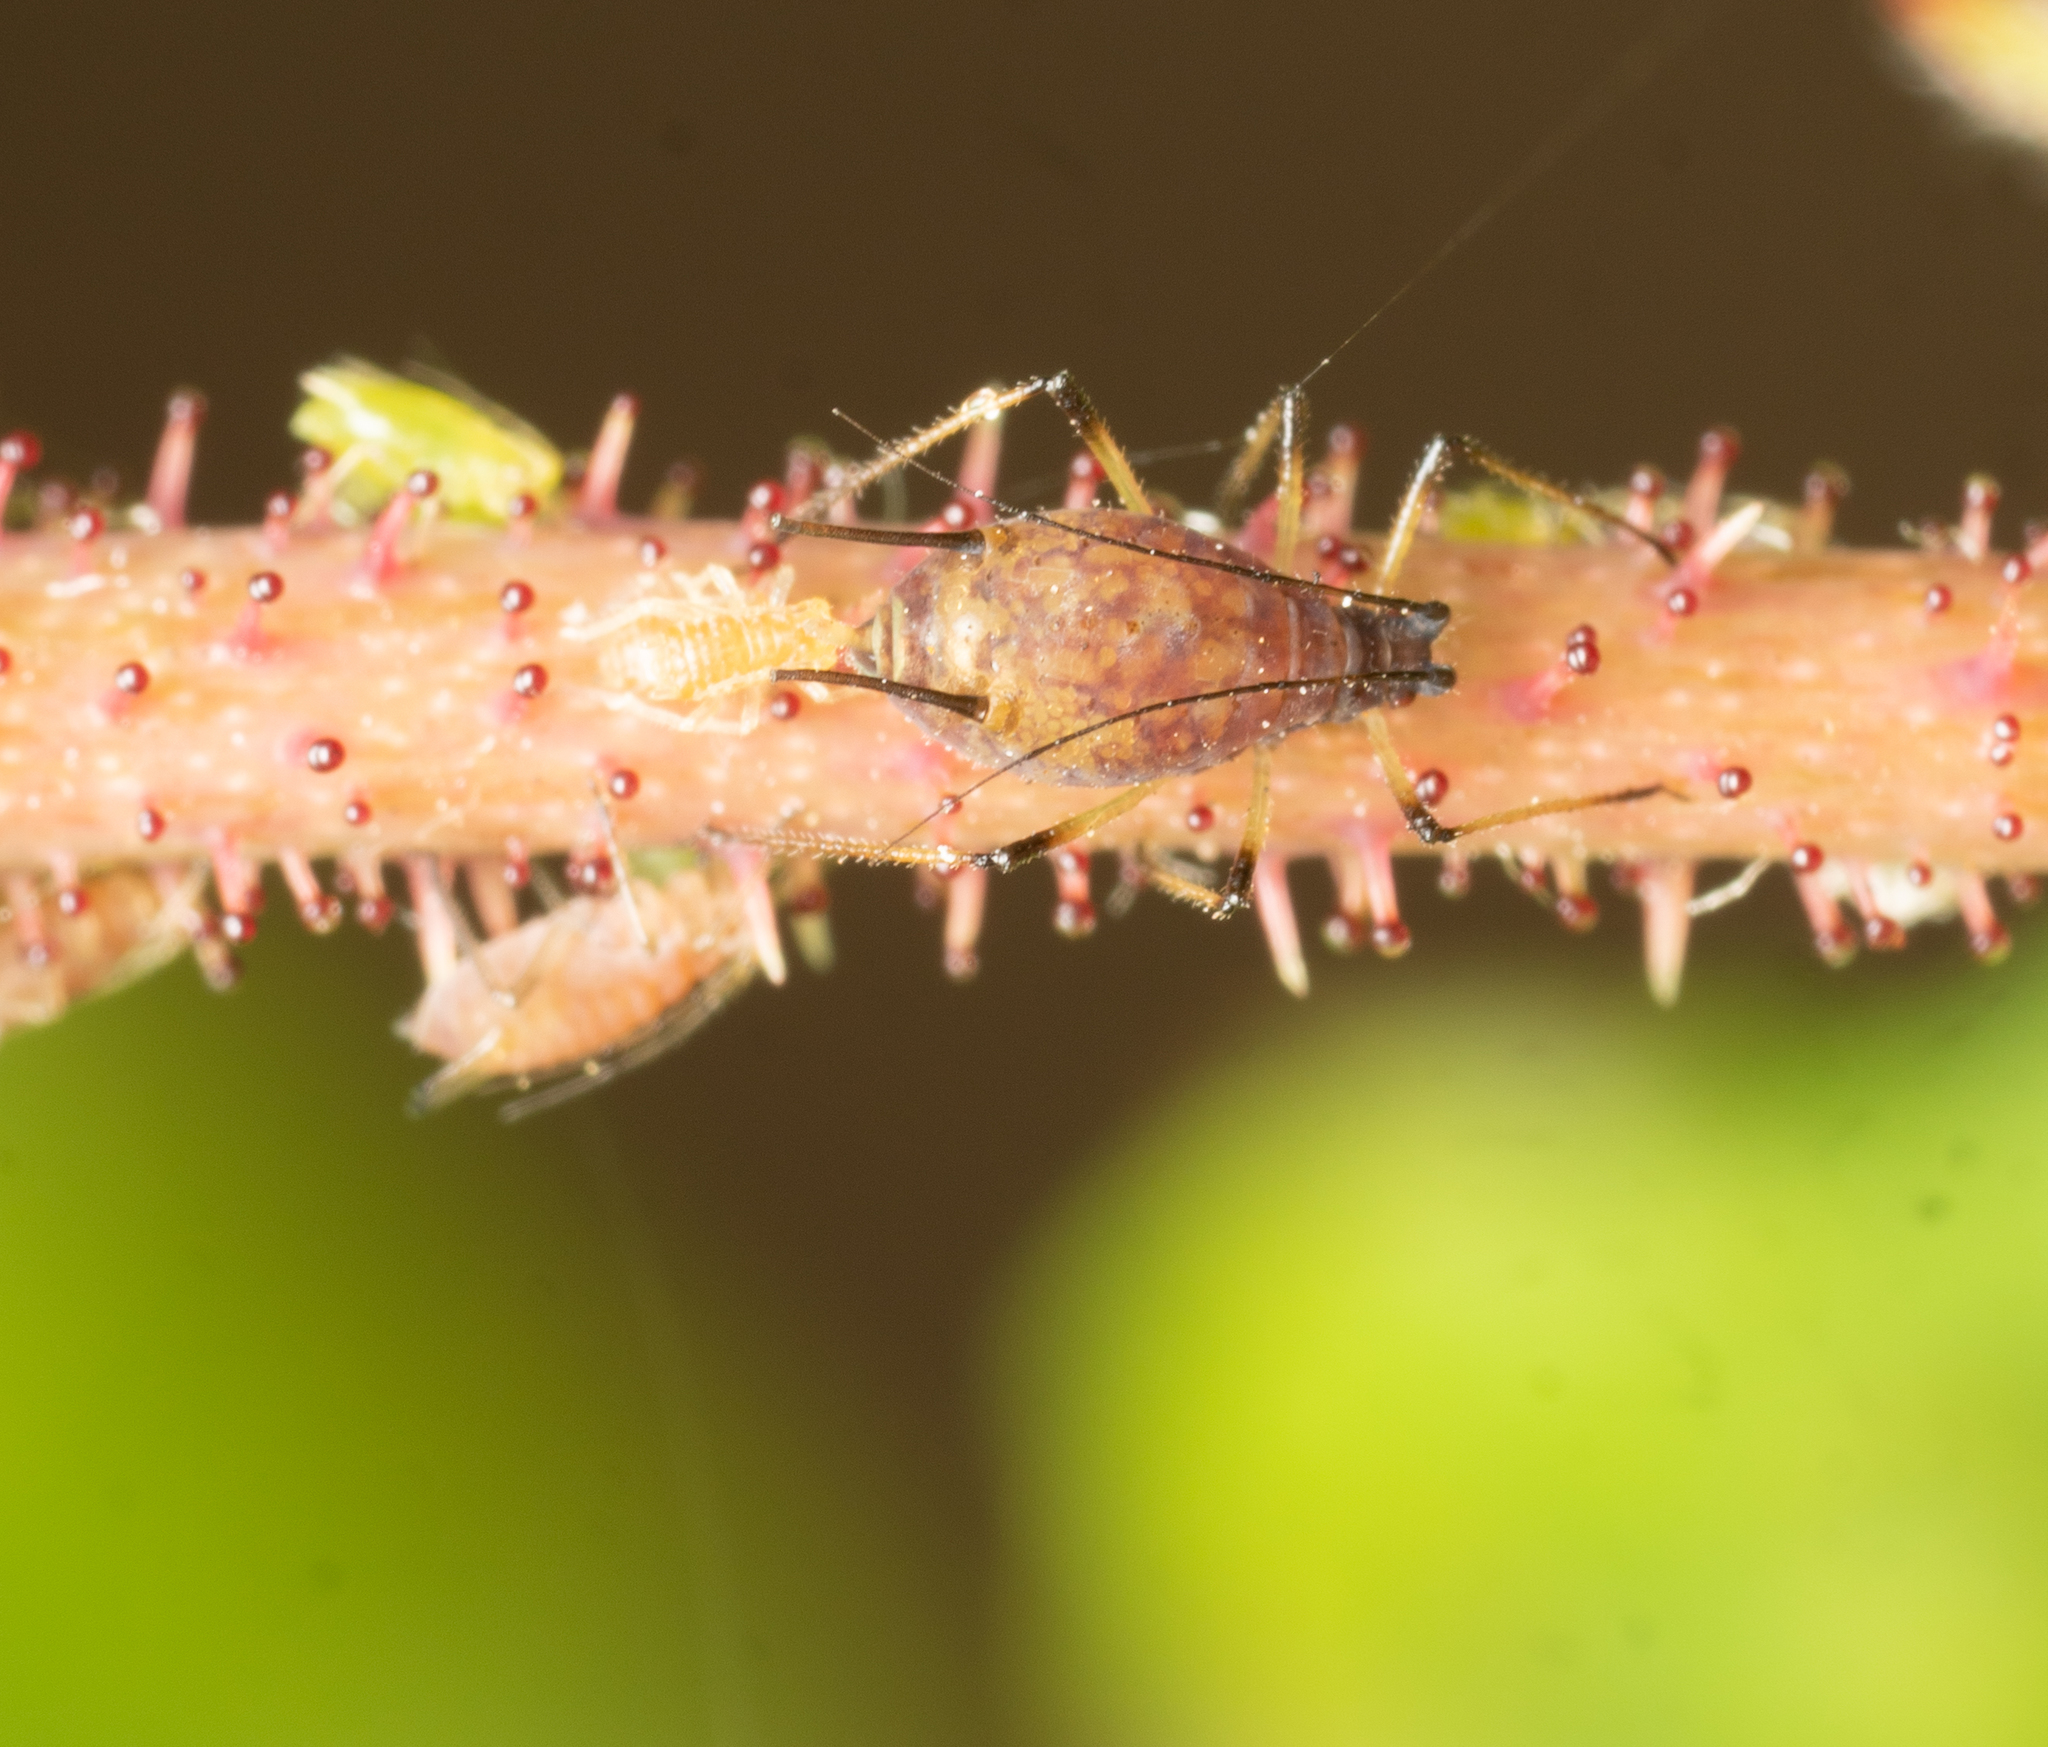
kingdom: Animalia
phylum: Arthropoda
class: Insecta
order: Hemiptera
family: Aphididae
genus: Macrosiphum
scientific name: Macrosiphum rosae
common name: Rose aphid
